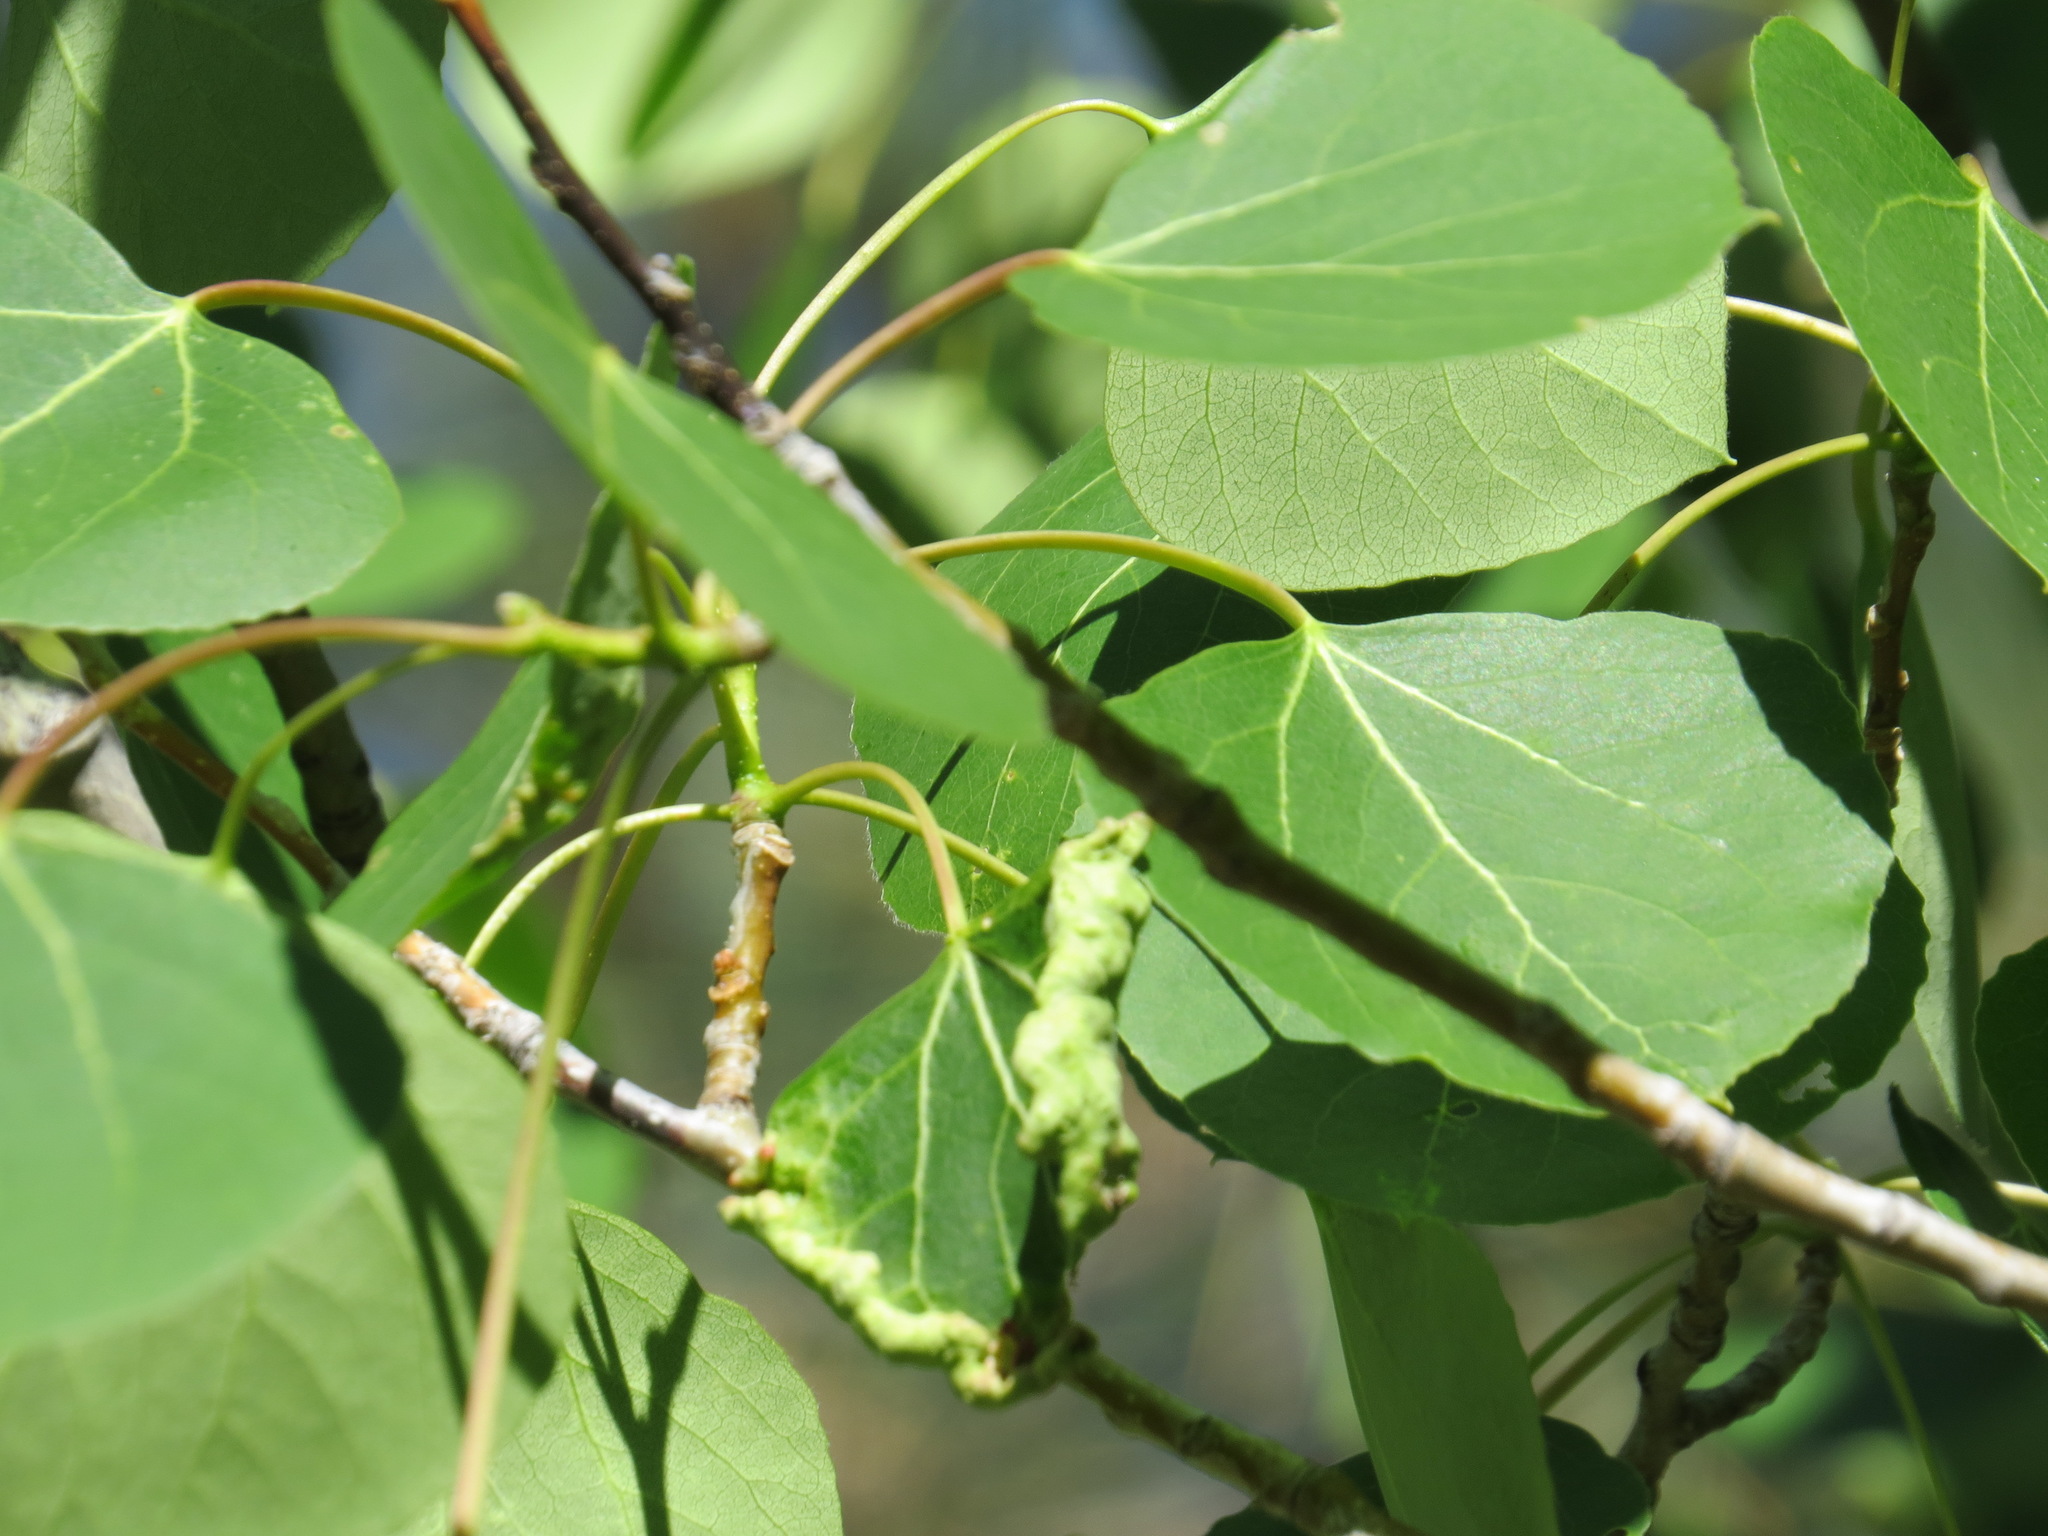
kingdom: Animalia
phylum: Arthropoda
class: Insecta
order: Diptera
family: Cecidomyiidae
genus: Prodiplosis
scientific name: Prodiplosis morrisi
